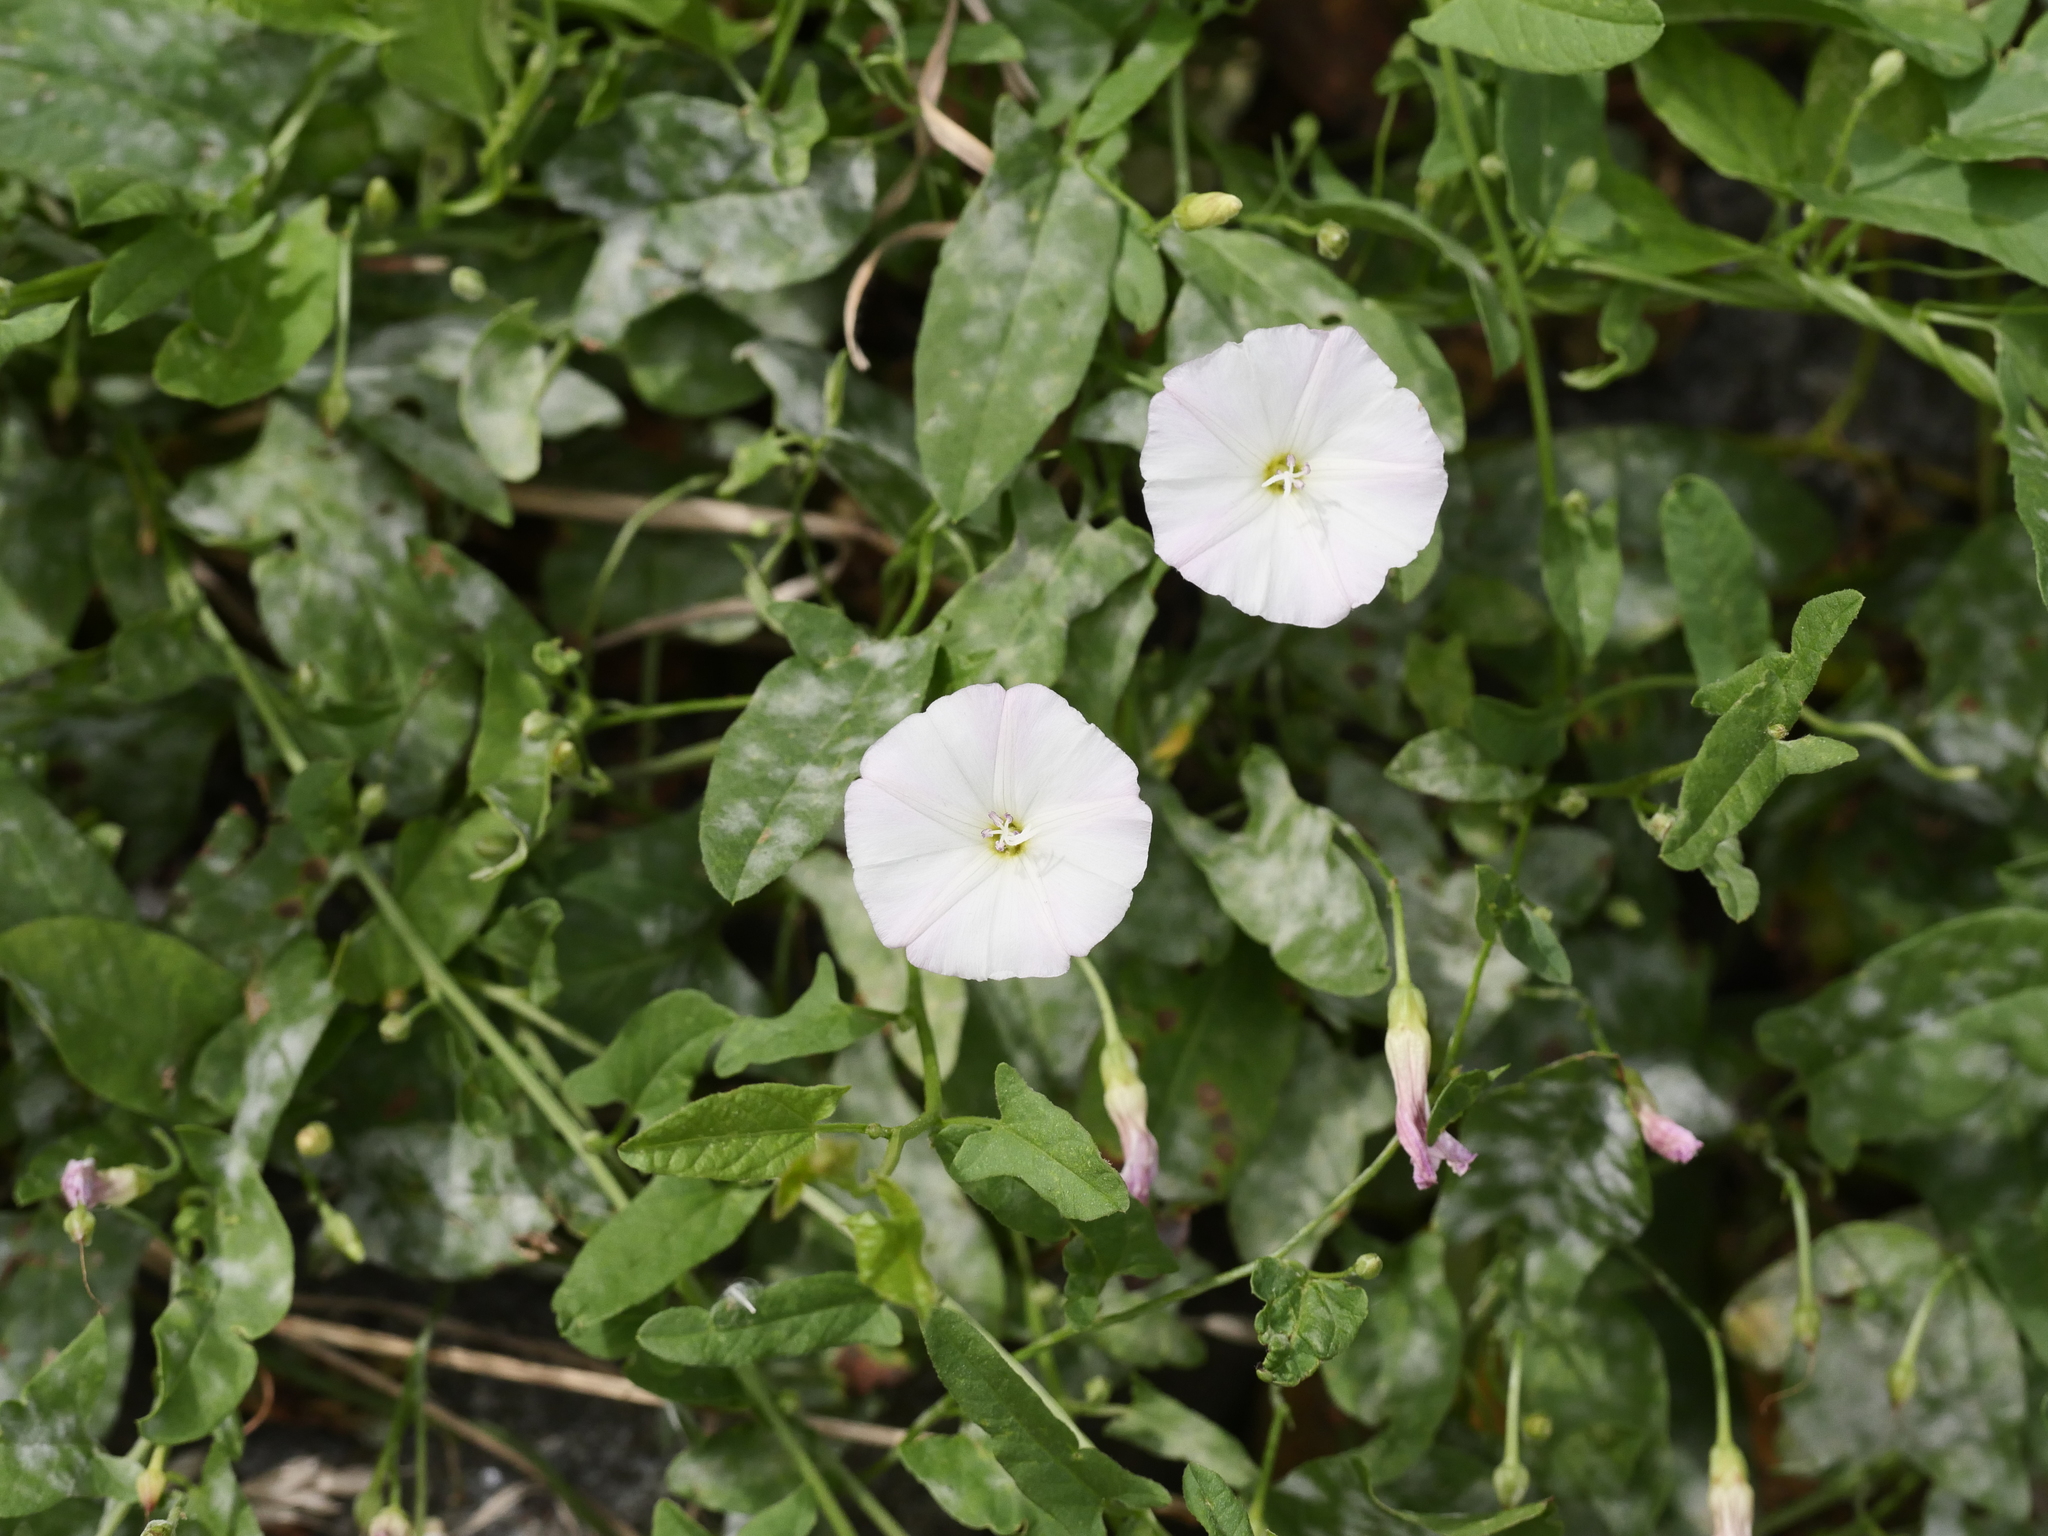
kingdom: Plantae
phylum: Tracheophyta
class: Magnoliopsida
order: Solanales
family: Convolvulaceae
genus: Convolvulus
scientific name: Convolvulus arvensis
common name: Field bindweed
